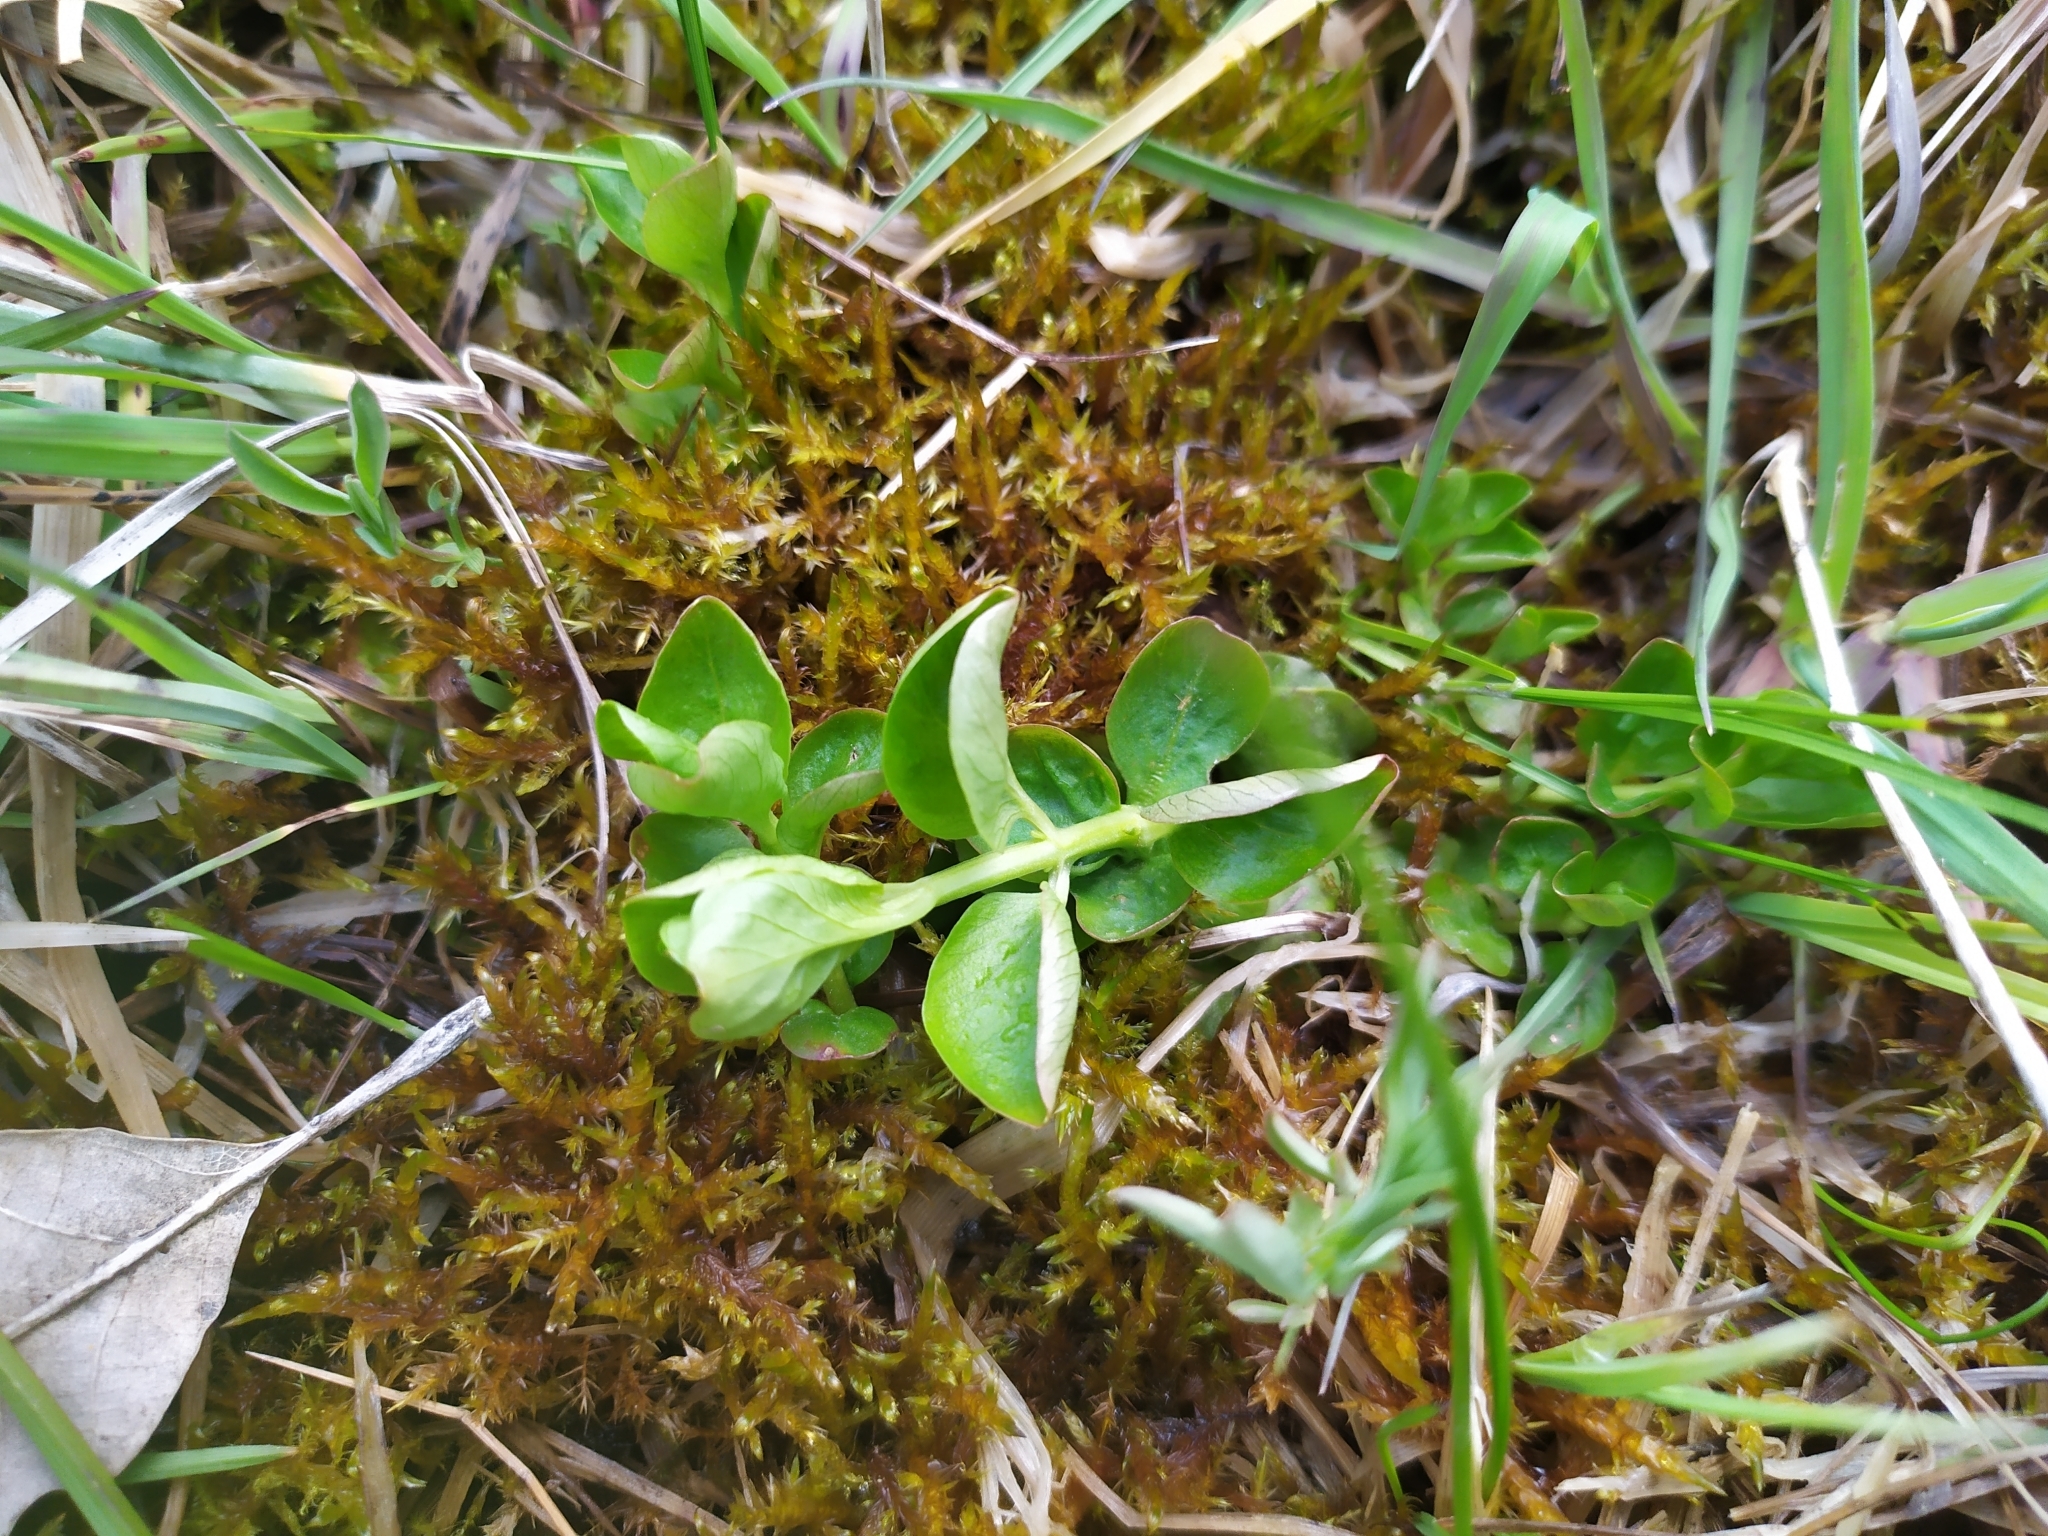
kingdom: Plantae
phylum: Tracheophyta
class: Magnoliopsida
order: Ericales
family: Primulaceae
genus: Lysimachia
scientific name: Lysimachia nummularia
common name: Moneywort
